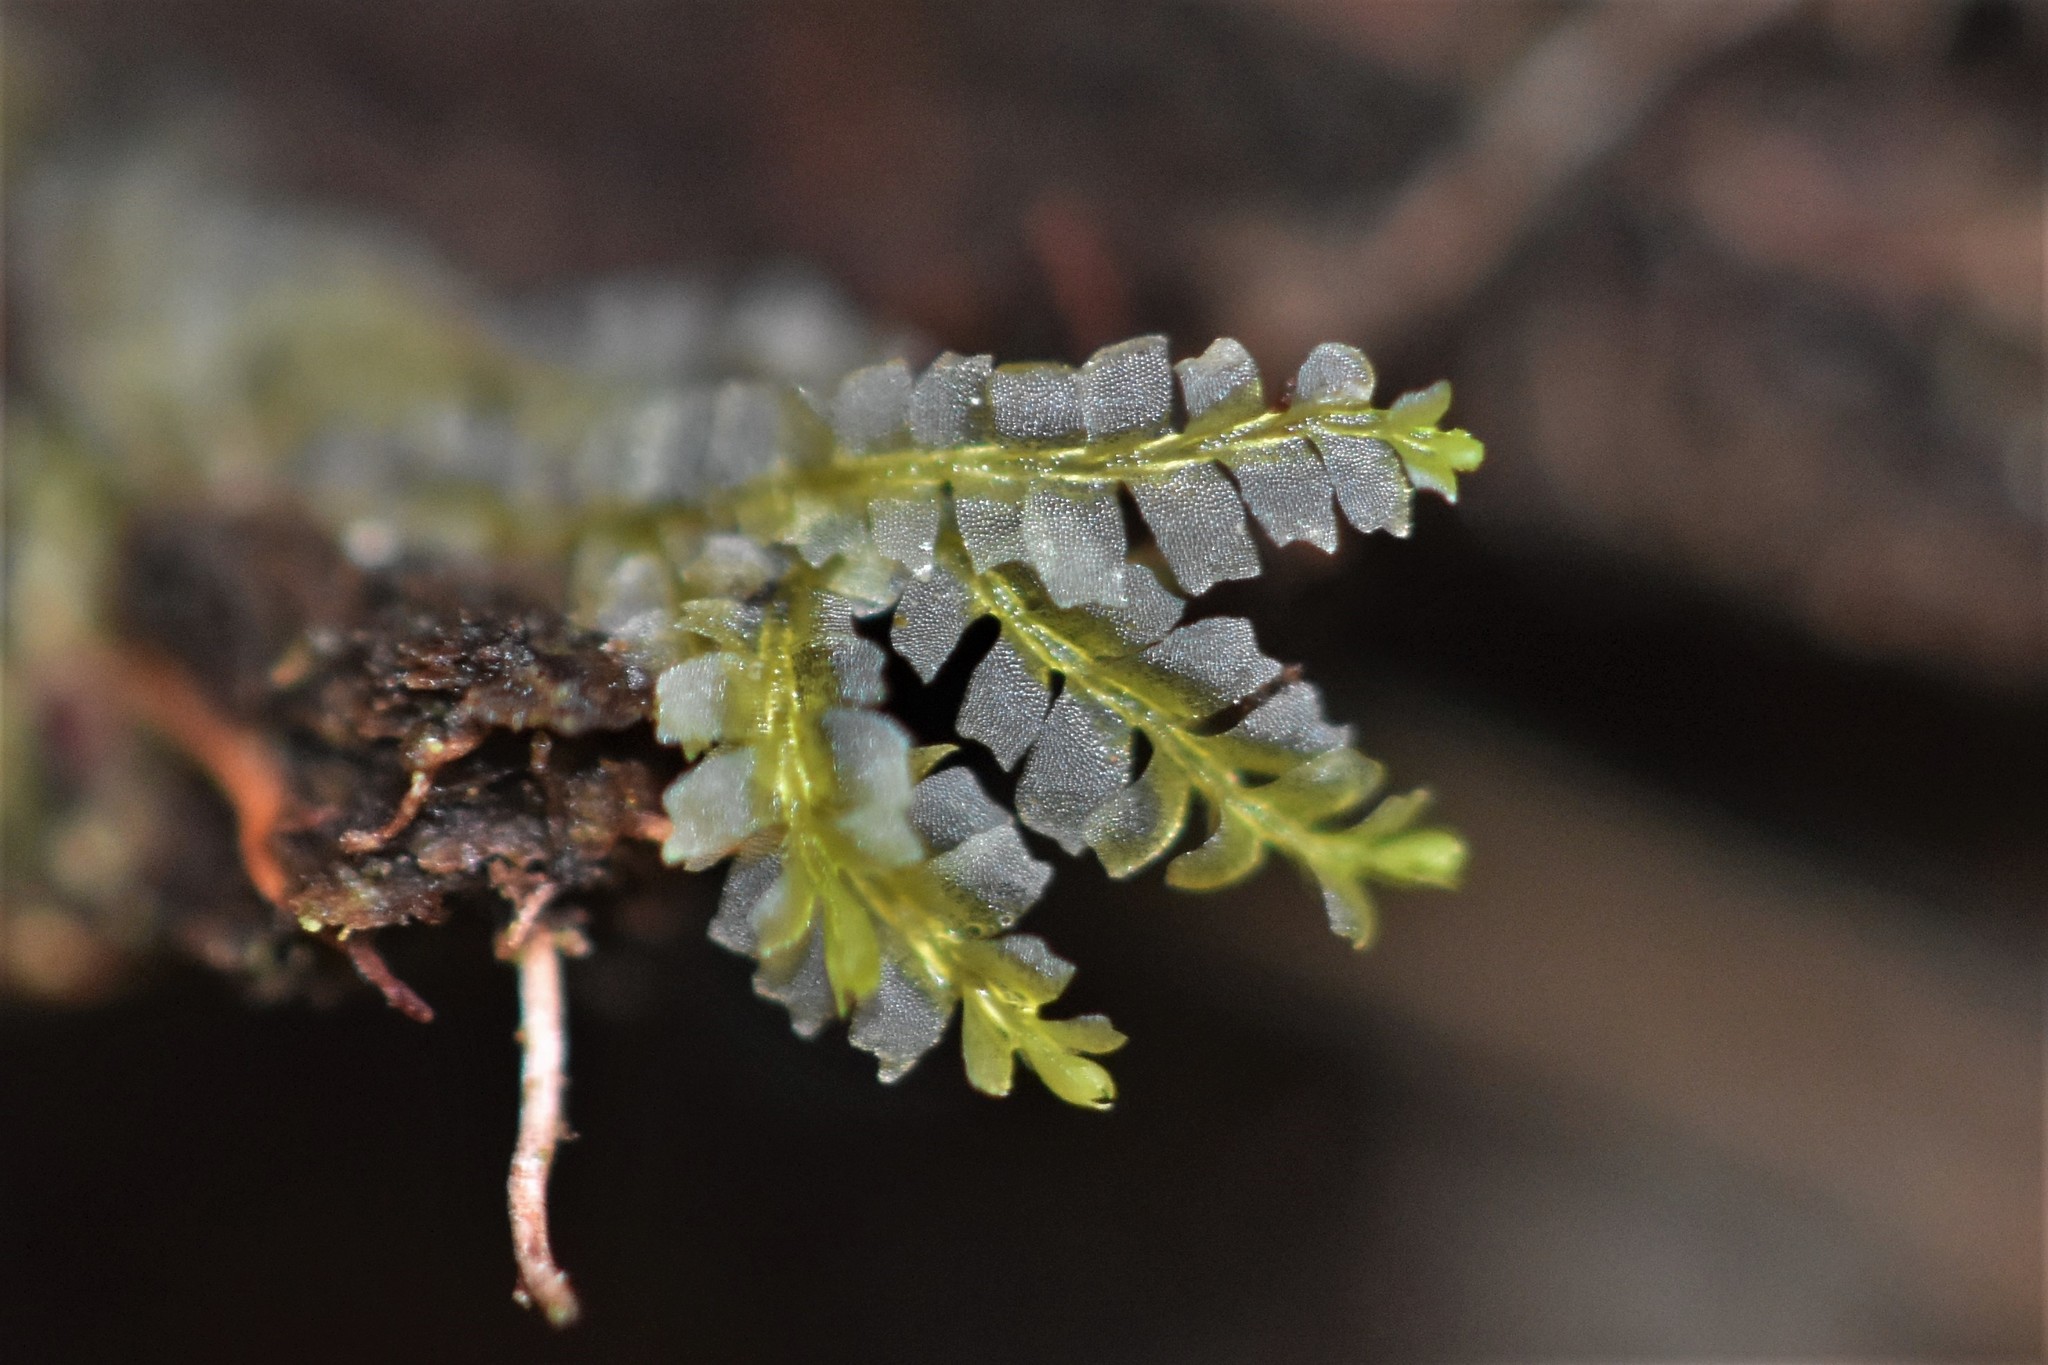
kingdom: Plantae
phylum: Marchantiophyta
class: Jungermanniopsida
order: Jungermanniales
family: Lophocoleaceae
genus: Lophocolea
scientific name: Lophocolea heterophylla
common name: Variable-leaved crestwort
